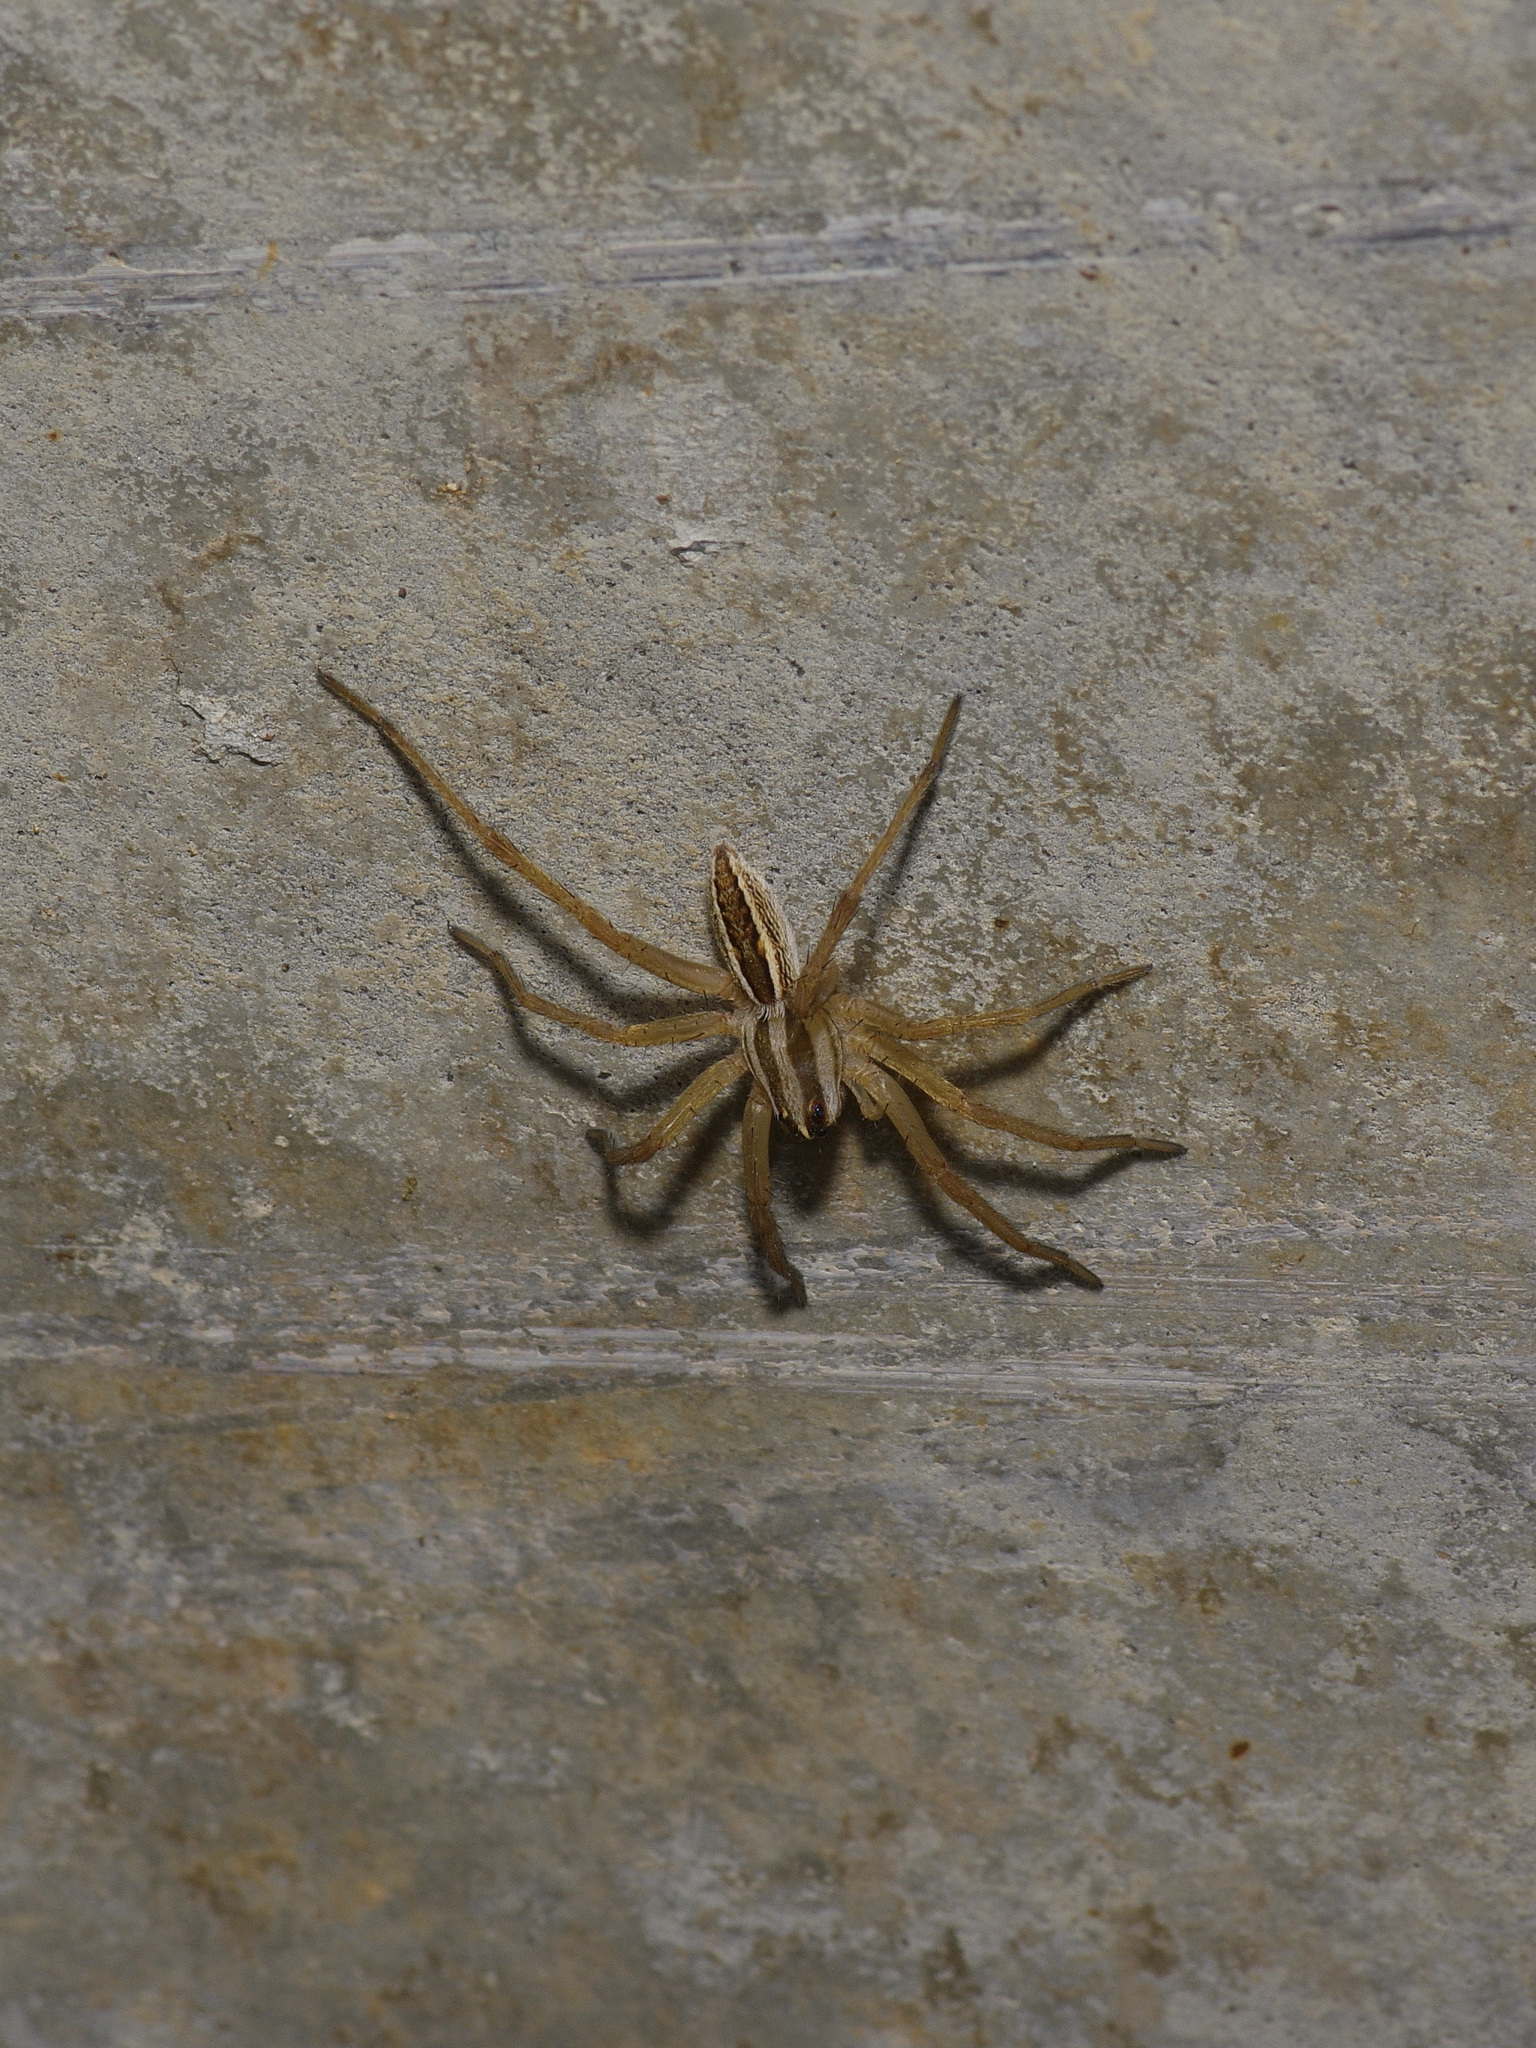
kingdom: Animalia
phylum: Arthropoda
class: Arachnida
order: Araneae
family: Lycosidae
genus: Rabidosa
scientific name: Rabidosa rabida
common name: Rabid wolf spider
